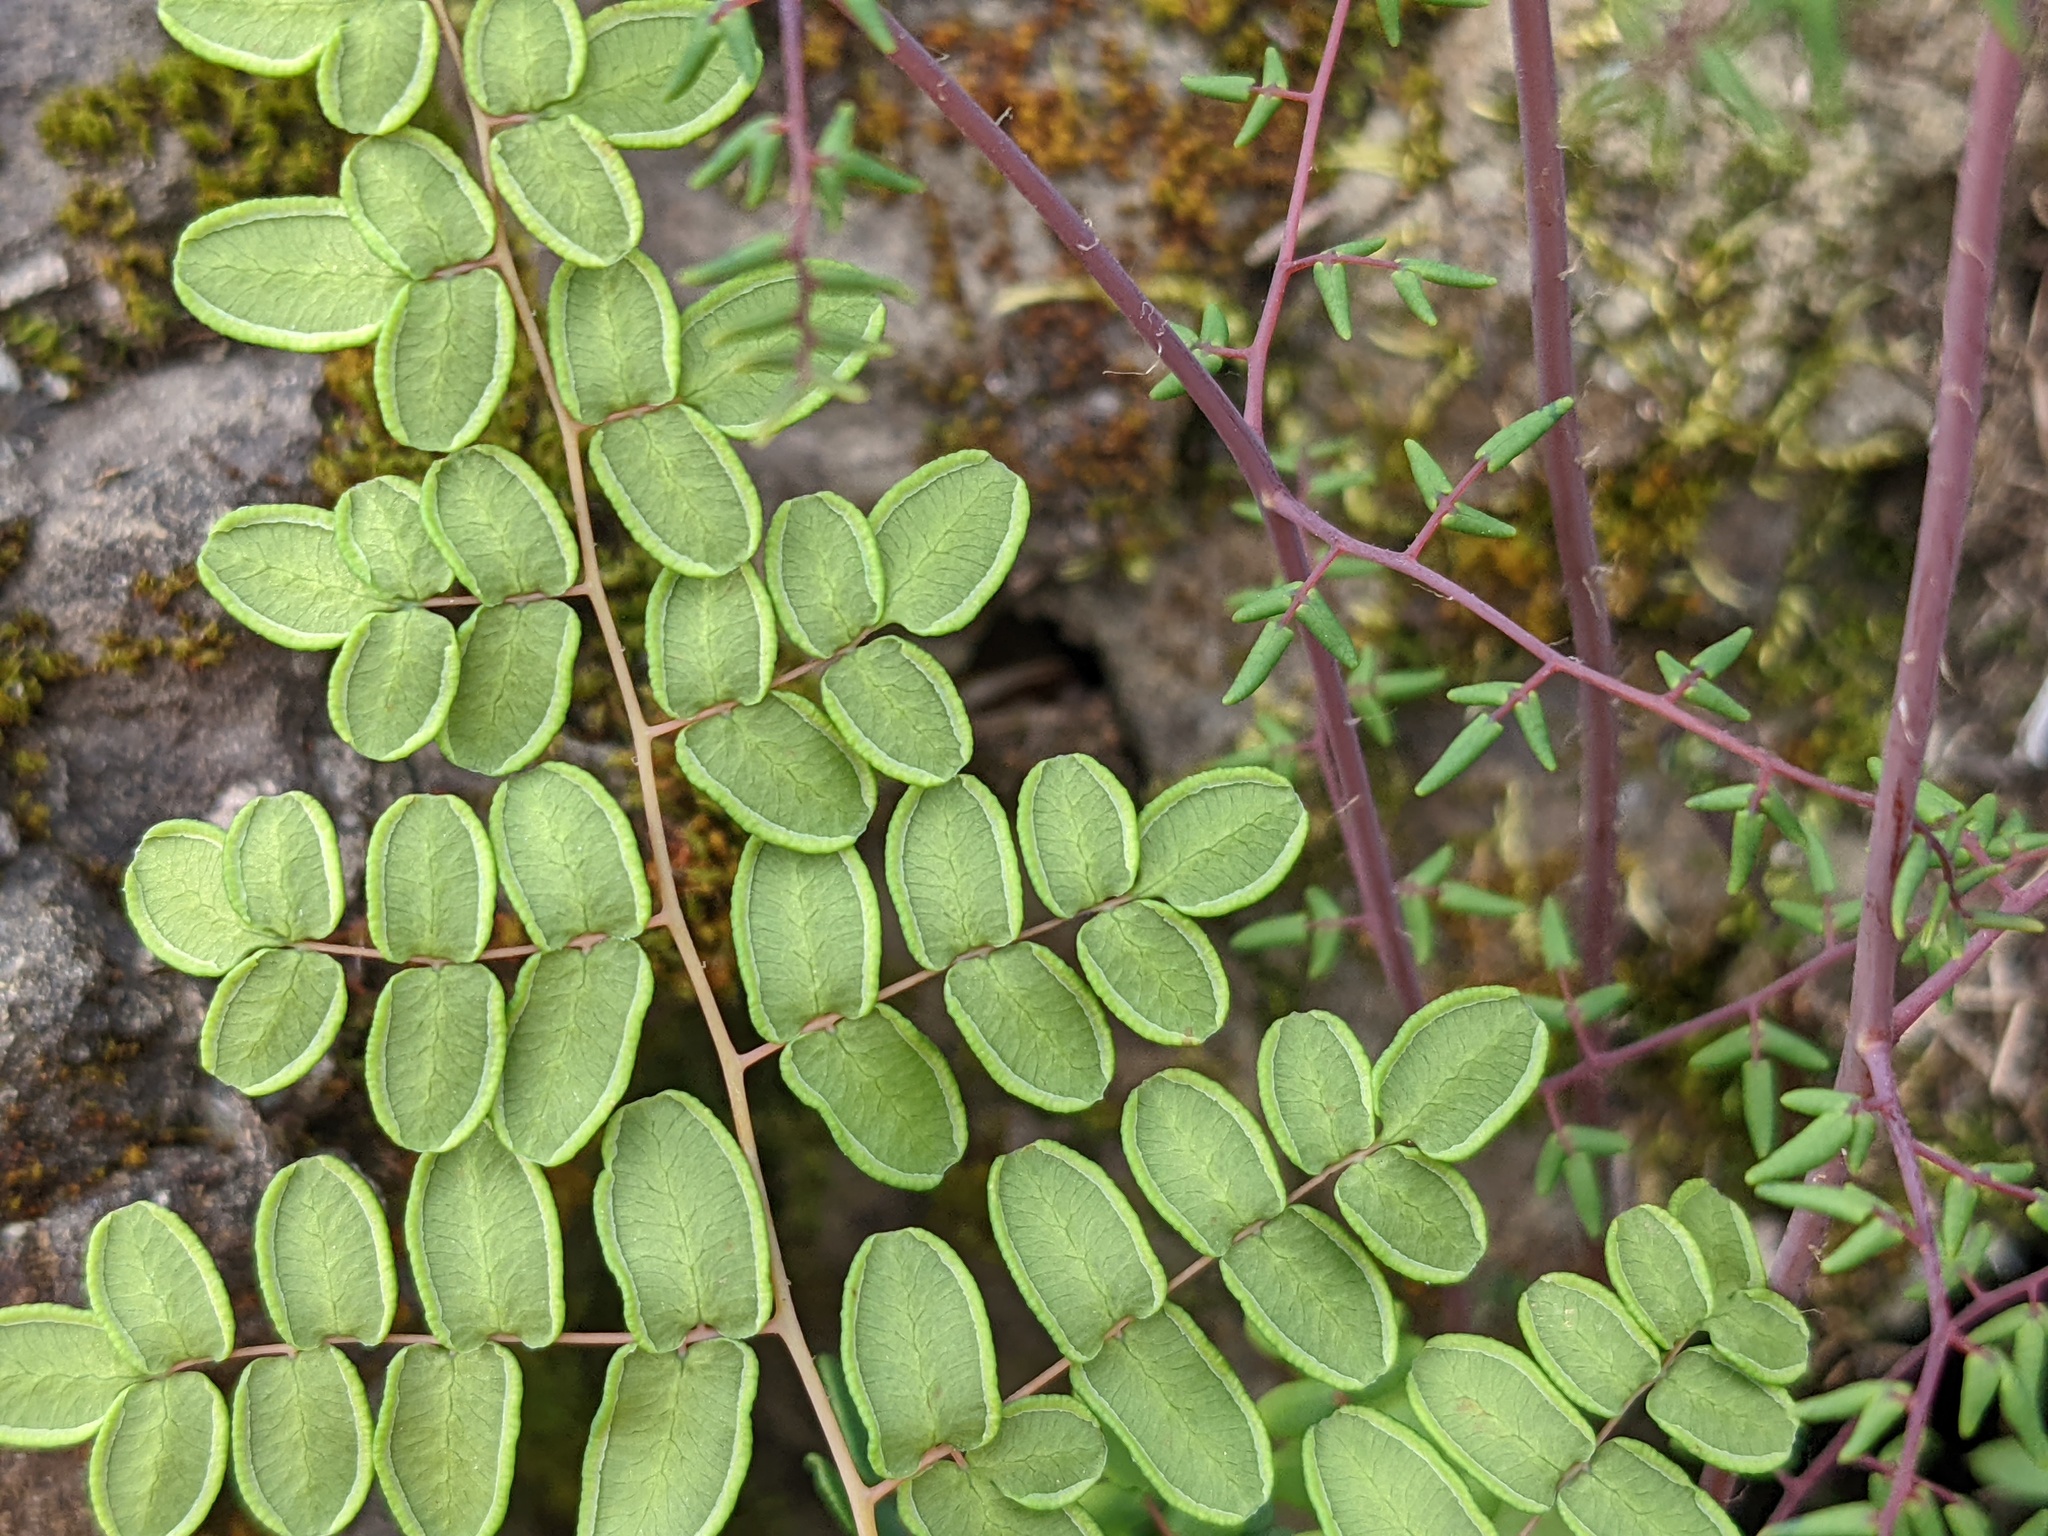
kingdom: Plantae
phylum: Tracheophyta
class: Polypodiopsida
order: Polypodiales
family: Pteridaceae
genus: Pellaea
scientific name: Pellaea andromedifolia
